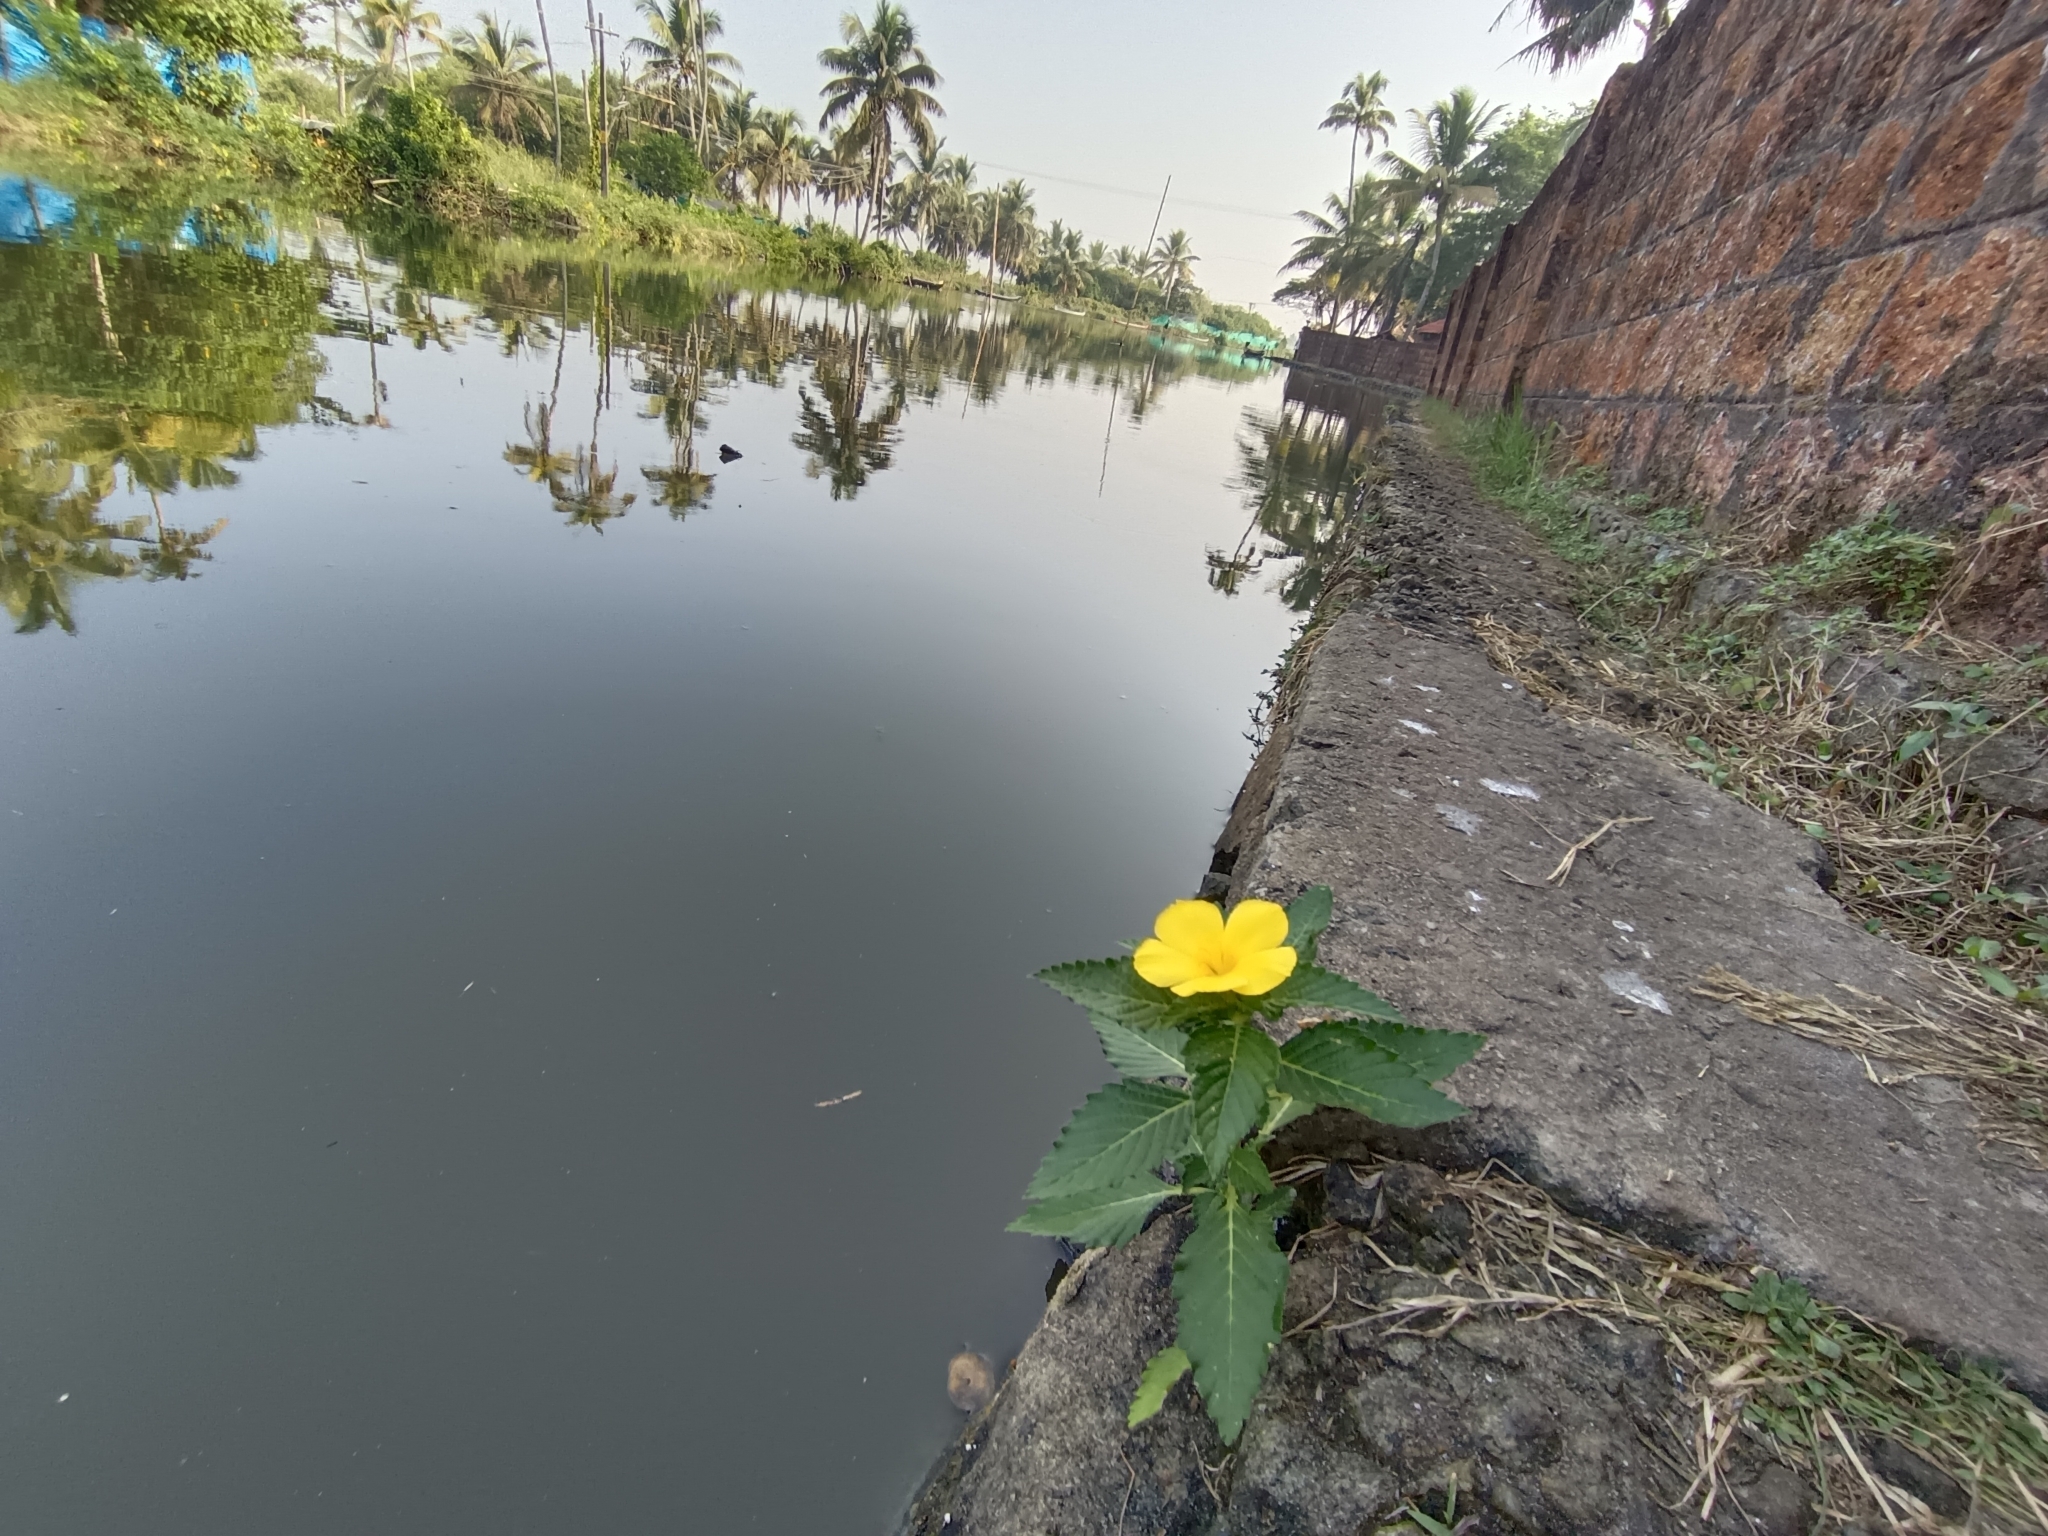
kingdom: Plantae
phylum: Tracheophyta
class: Magnoliopsida
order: Malpighiales
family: Turneraceae
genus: Turnera
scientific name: Turnera ulmifolia
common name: Ramgoat dashalong
